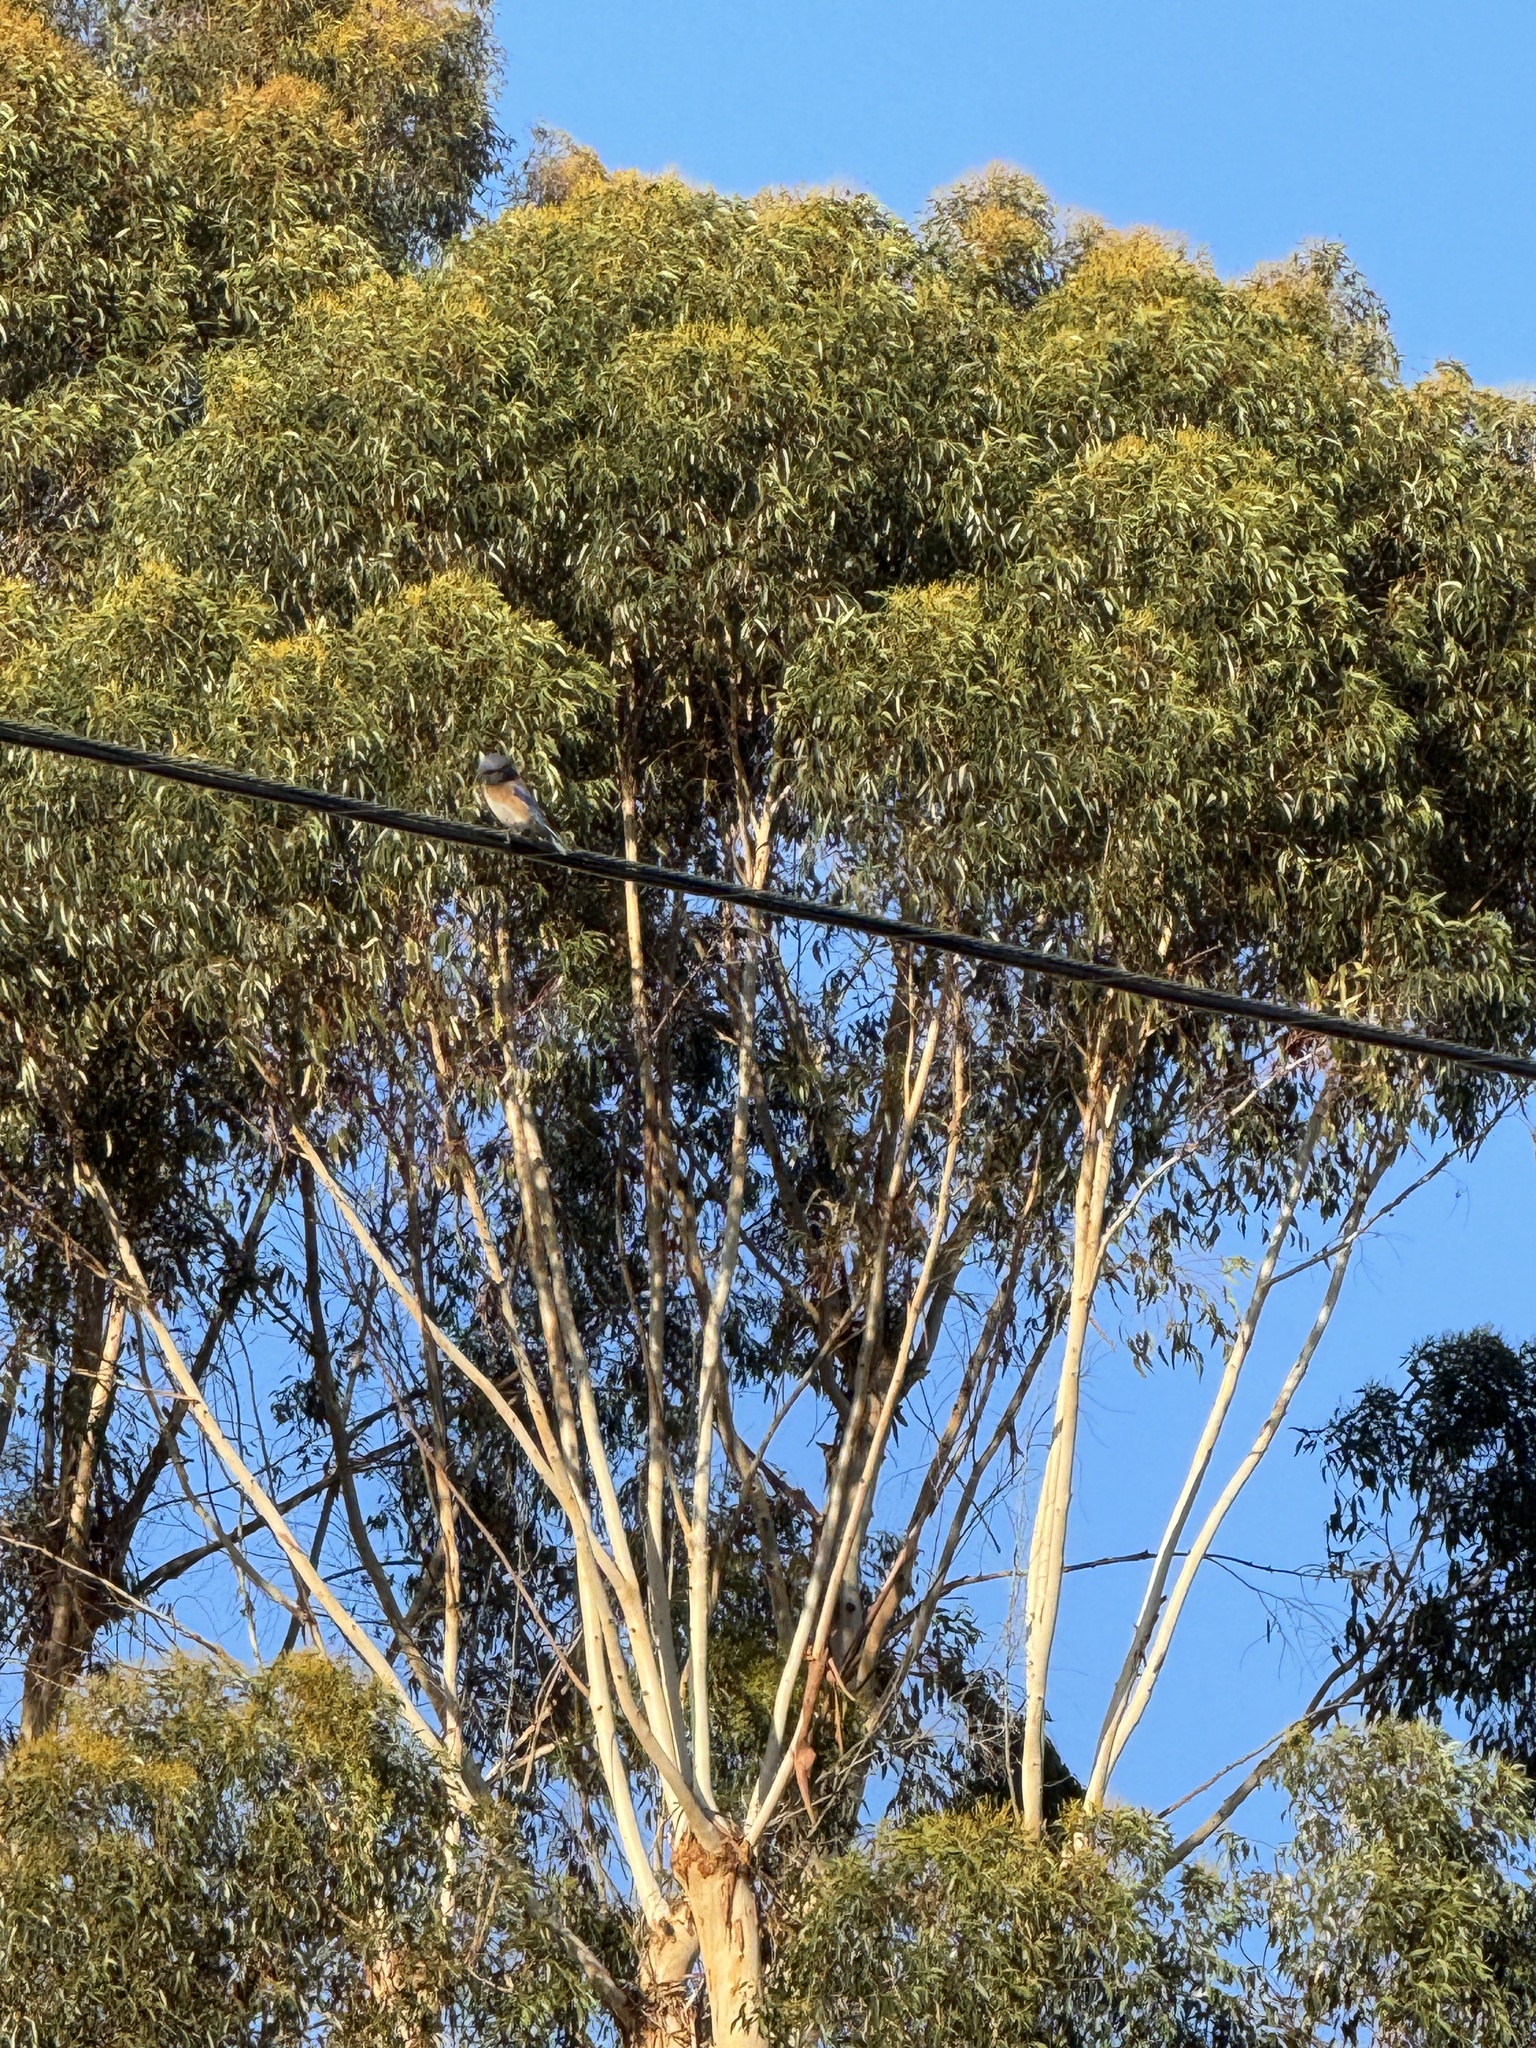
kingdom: Animalia
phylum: Chordata
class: Aves
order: Passeriformes
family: Turdidae
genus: Sialia
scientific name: Sialia mexicana
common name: Western bluebird
